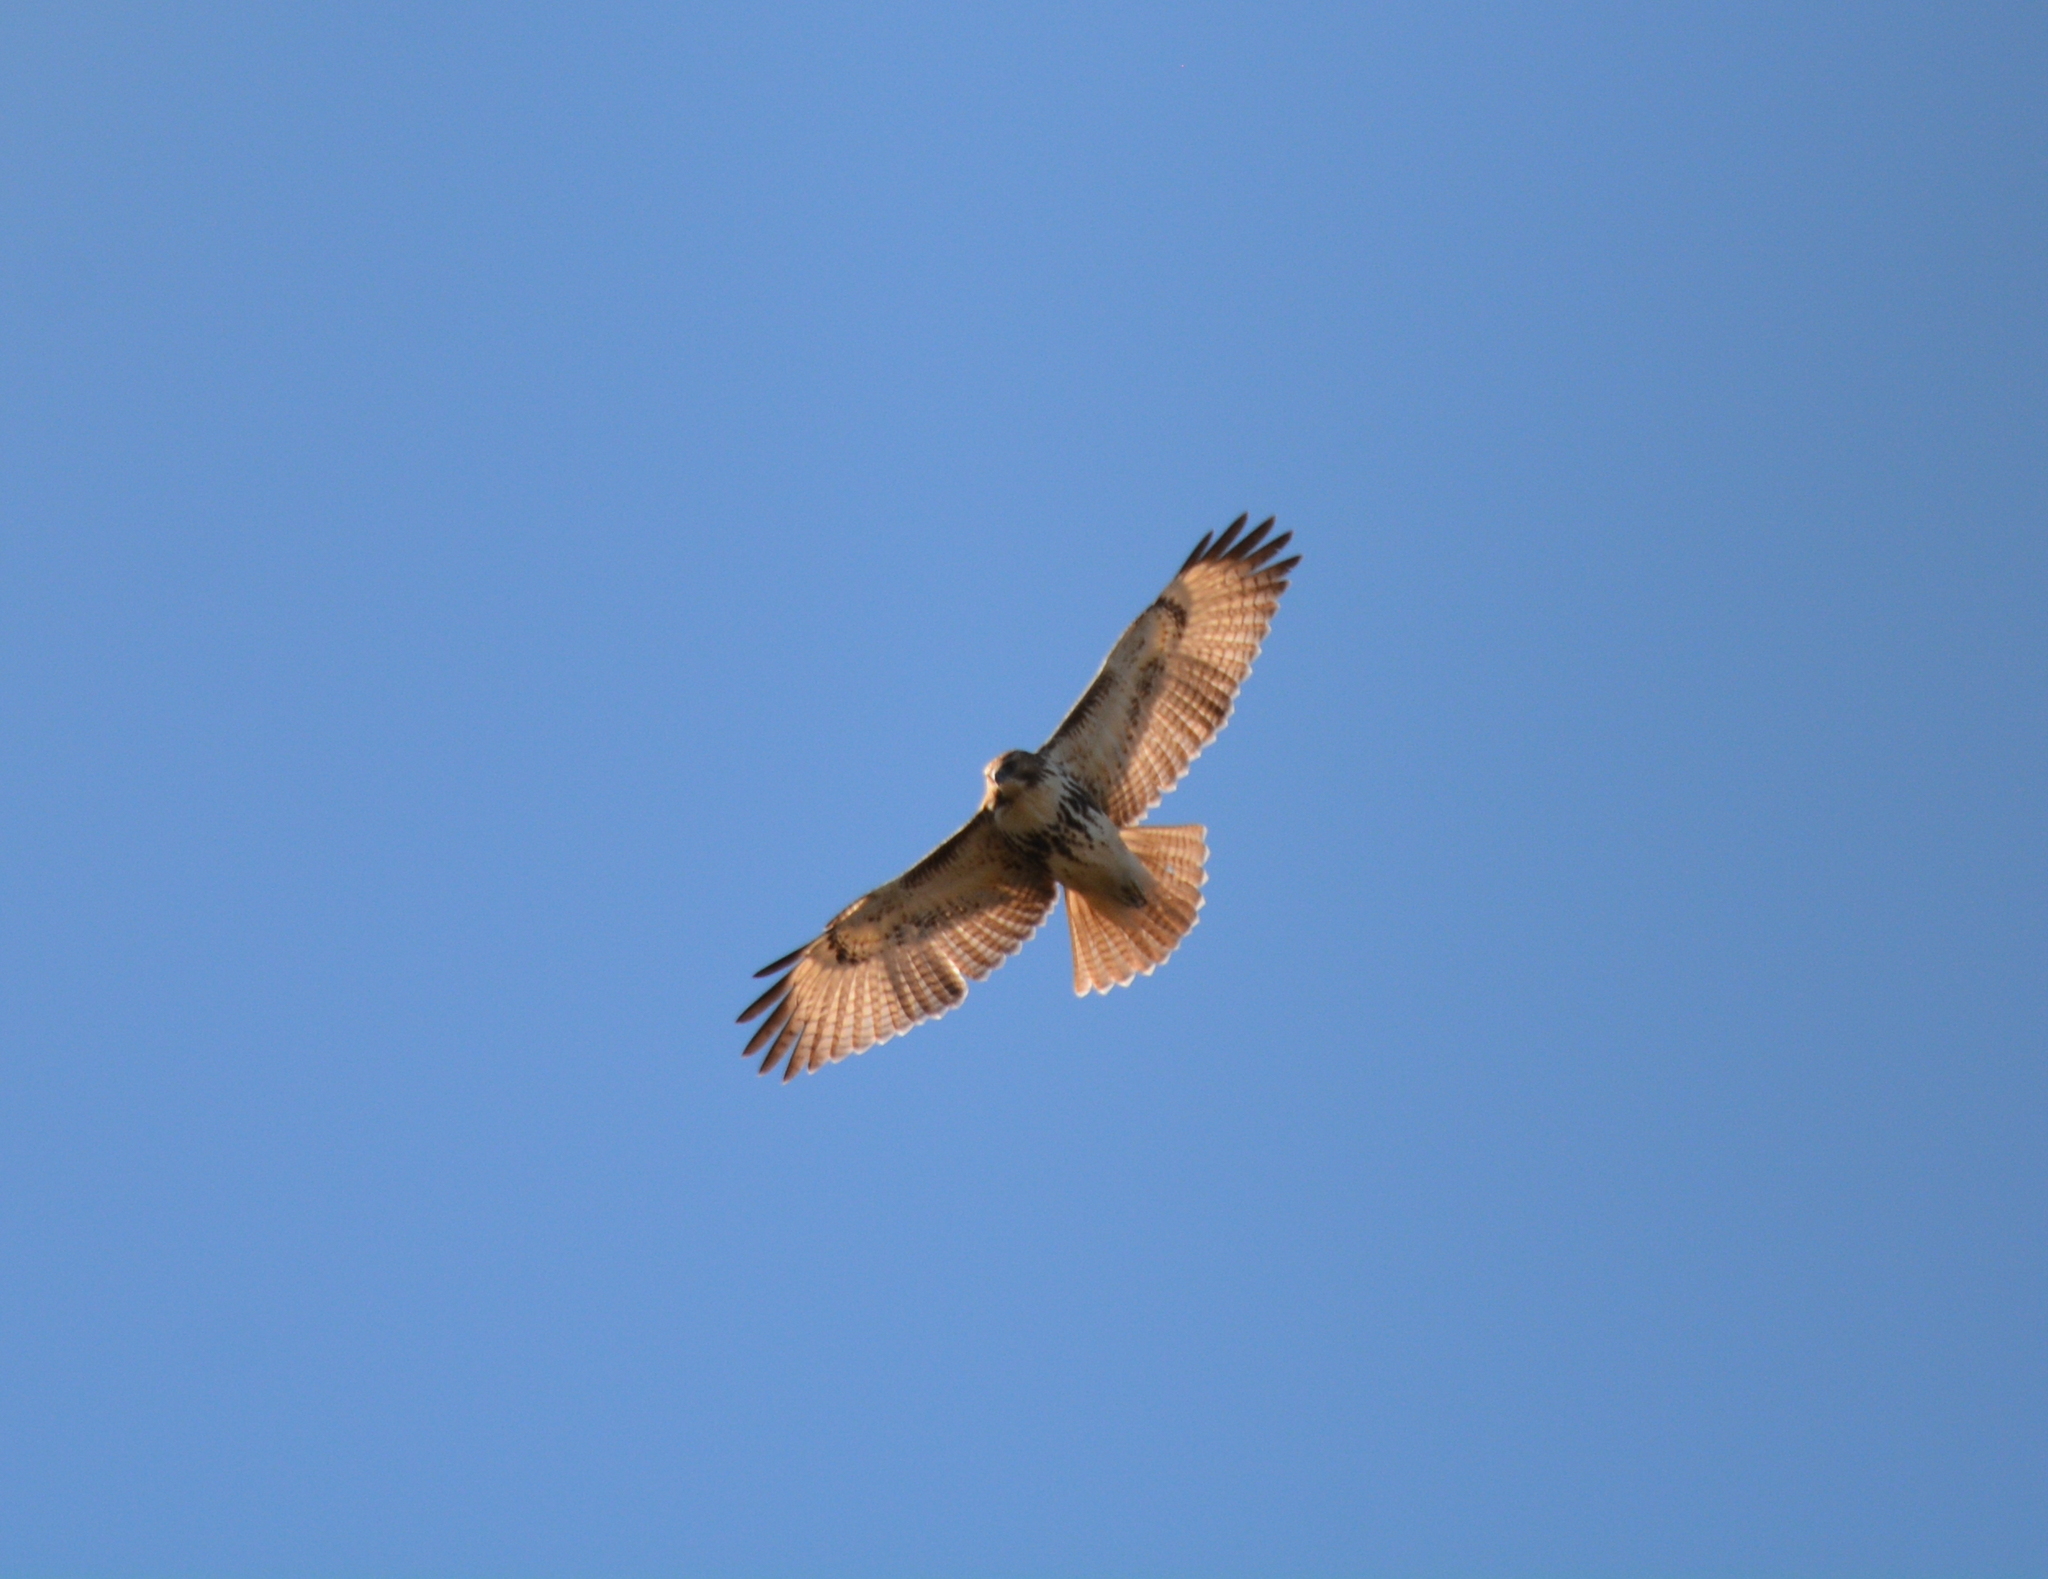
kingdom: Animalia
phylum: Chordata
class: Aves
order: Accipitriformes
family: Accipitridae
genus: Buteo
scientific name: Buteo jamaicensis
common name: Red-tailed hawk
